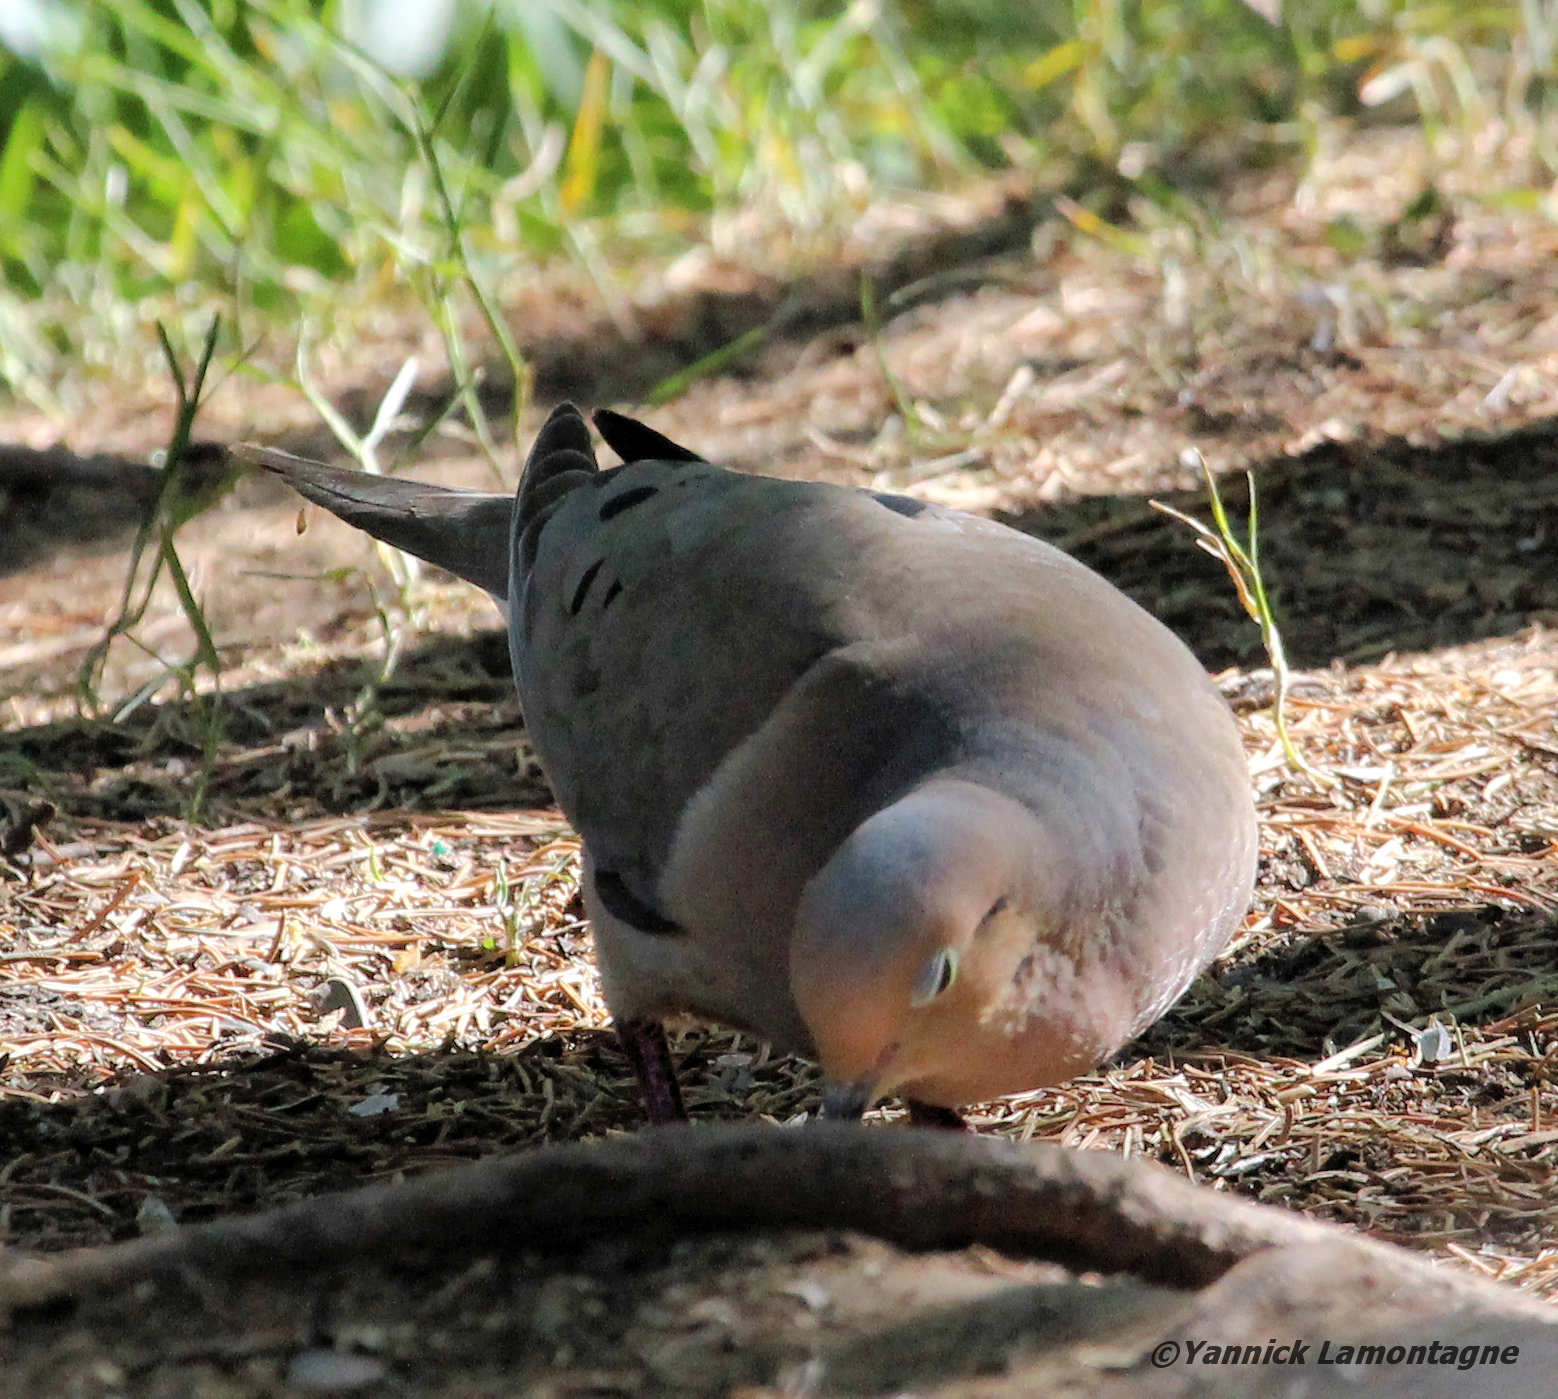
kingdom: Animalia
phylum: Chordata
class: Aves
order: Columbiformes
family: Columbidae
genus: Zenaida
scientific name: Zenaida macroura
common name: Mourning dove
